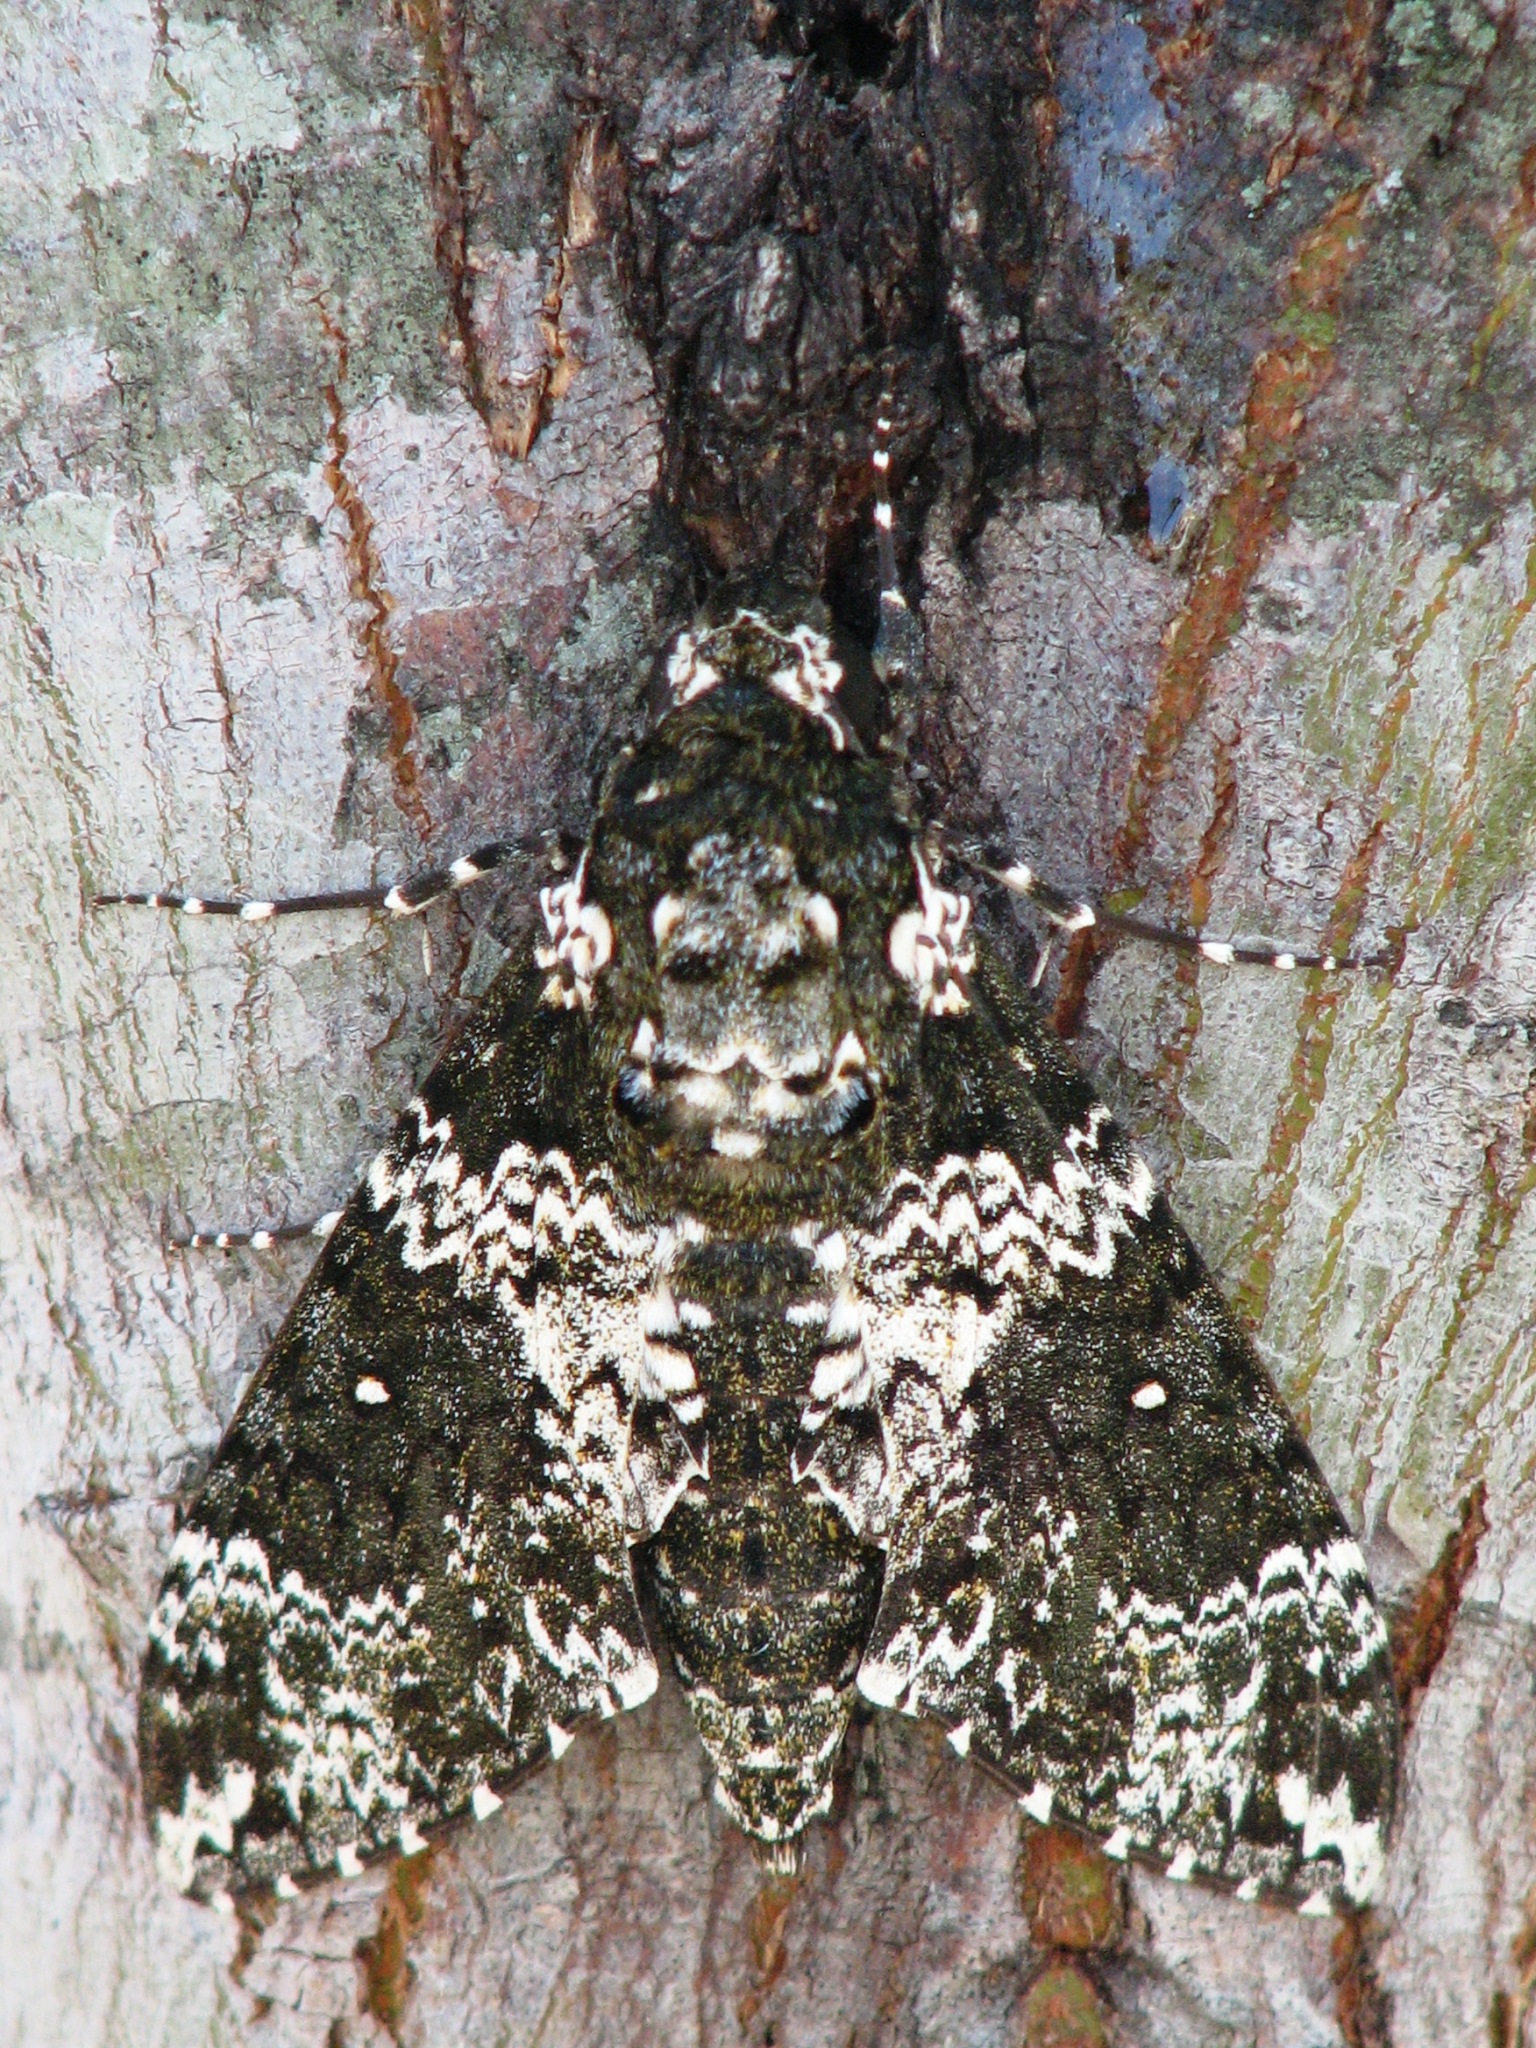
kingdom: Animalia
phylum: Arthropoda
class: Insecta
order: Lepidoptera
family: Sphingidae
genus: Manduca
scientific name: Manduca rustica
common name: Rustic sphinx
